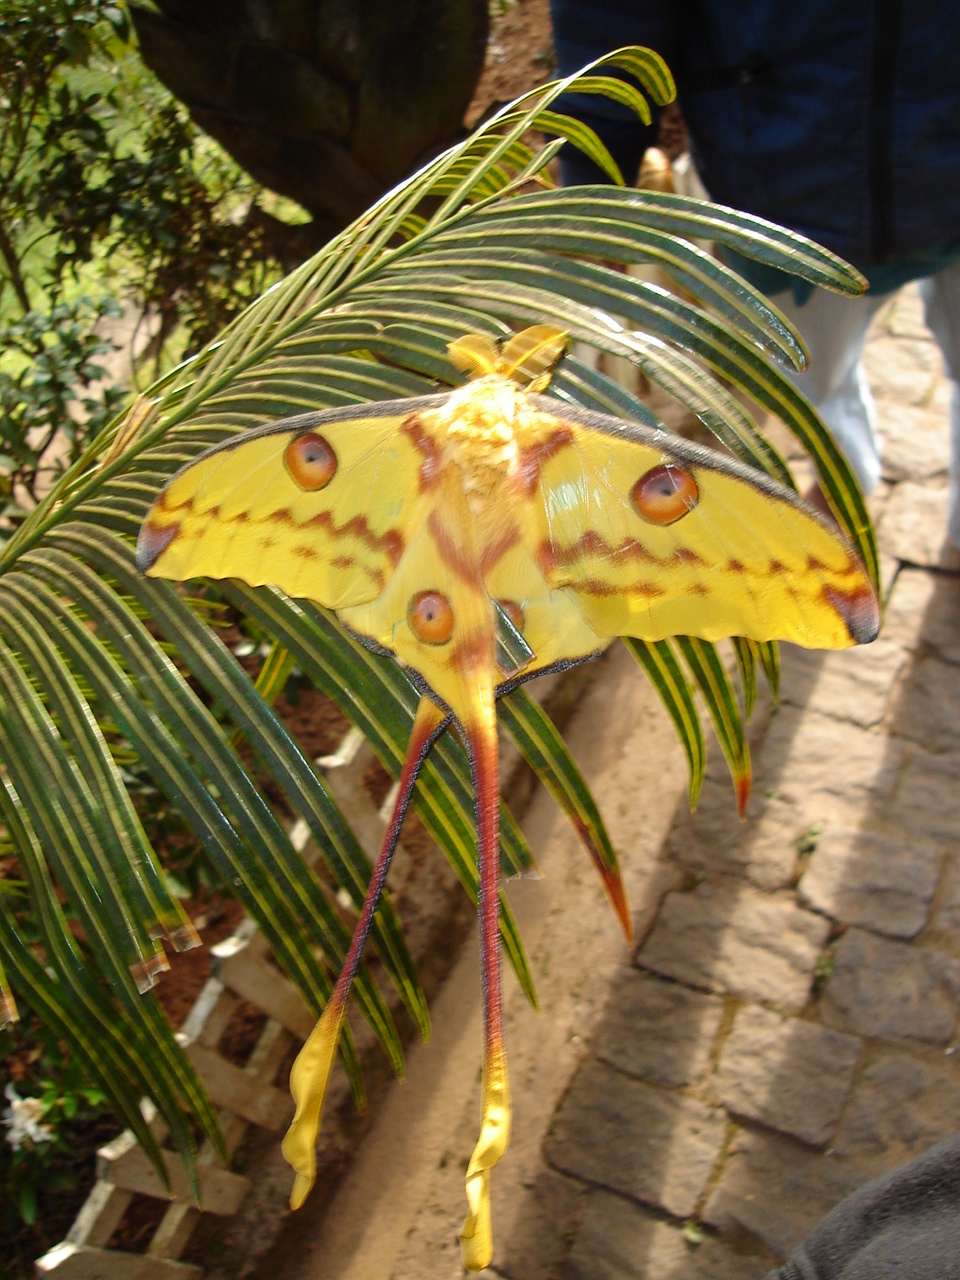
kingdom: Animalia
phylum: Arthropoda
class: Insecta
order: Lepidoptera
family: Saturniidae
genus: Argema
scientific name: Argema mittrei
